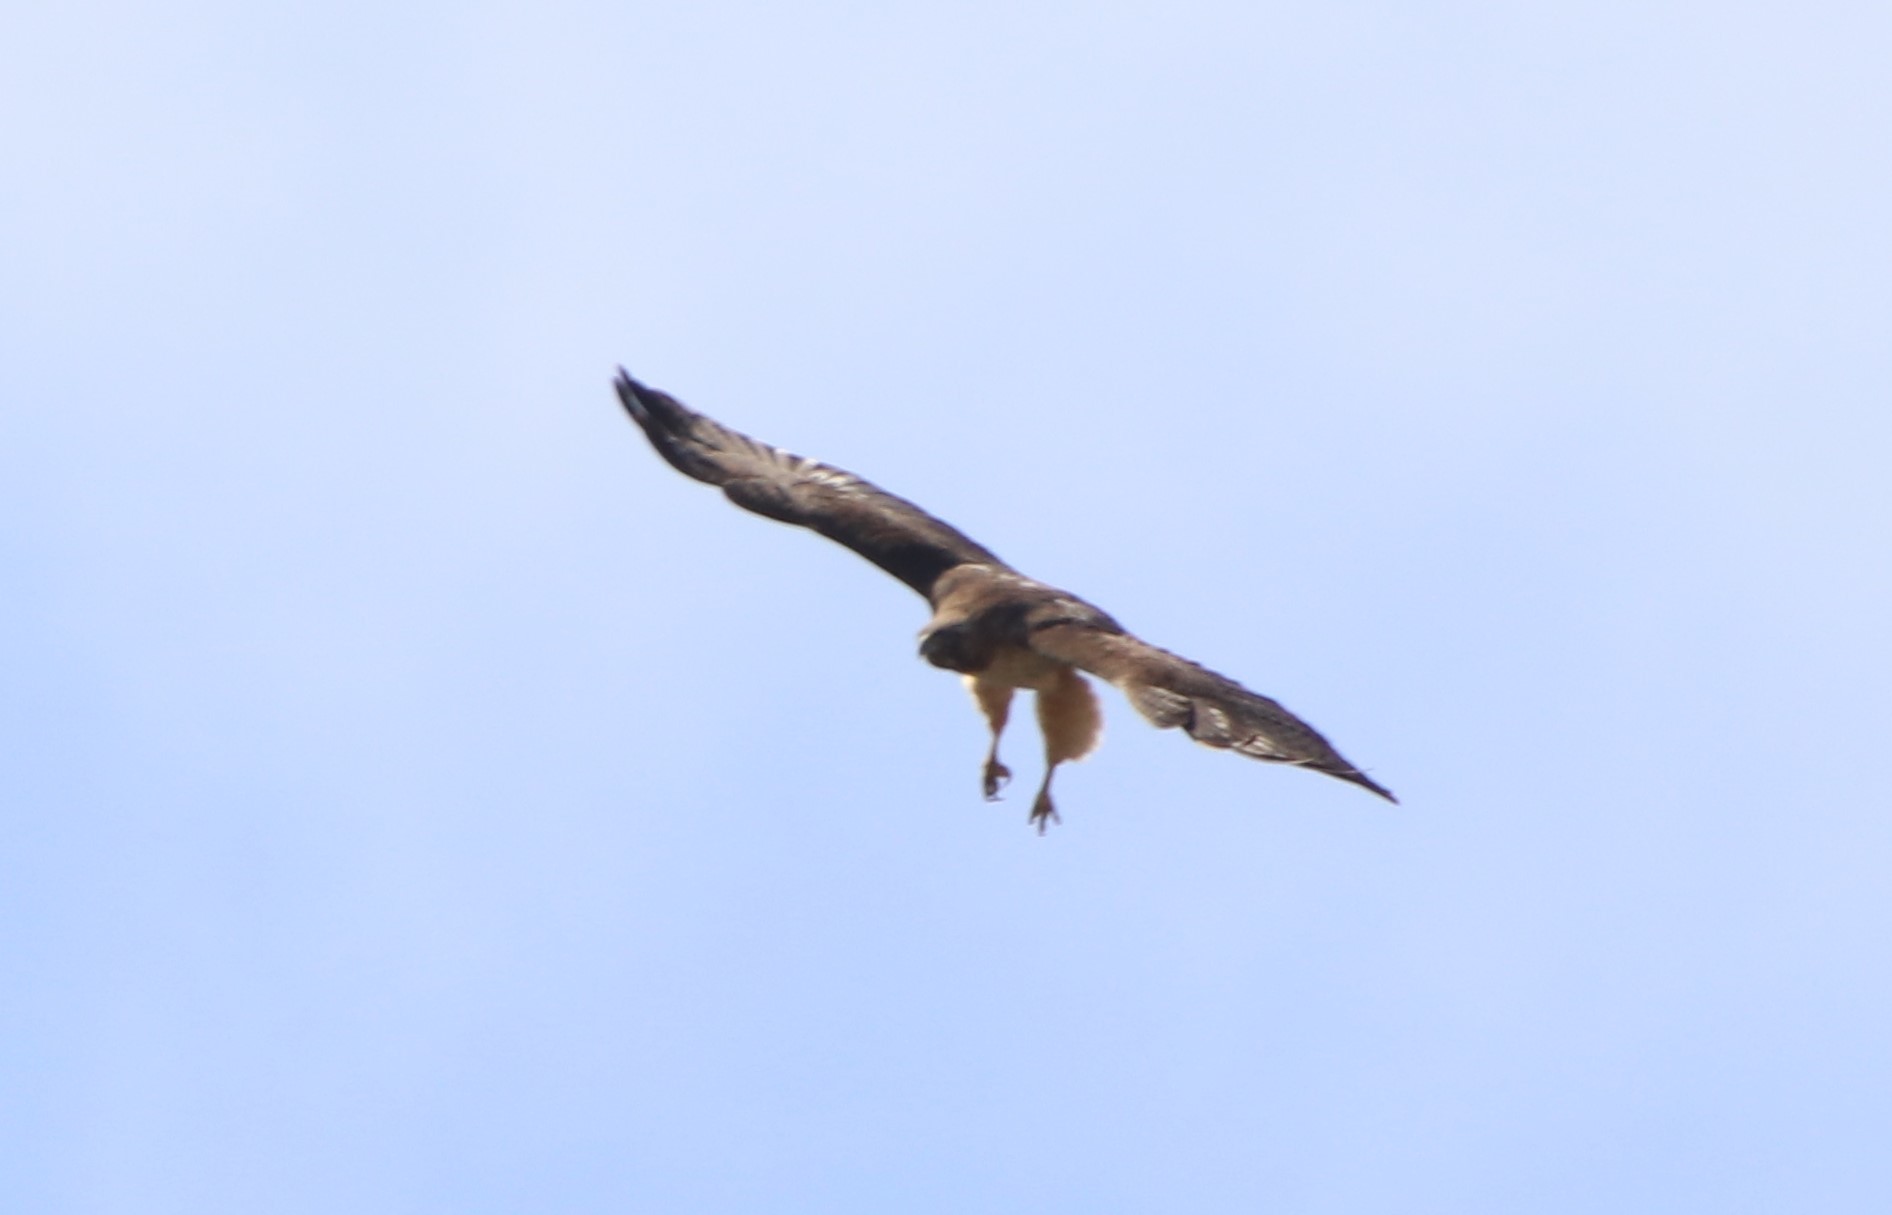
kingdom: Animalia
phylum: Chordata
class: Aves
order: Accipitriformes
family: Accipitridae
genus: Buteo
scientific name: Buteo jamaicensis
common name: Red-tailed hawk
